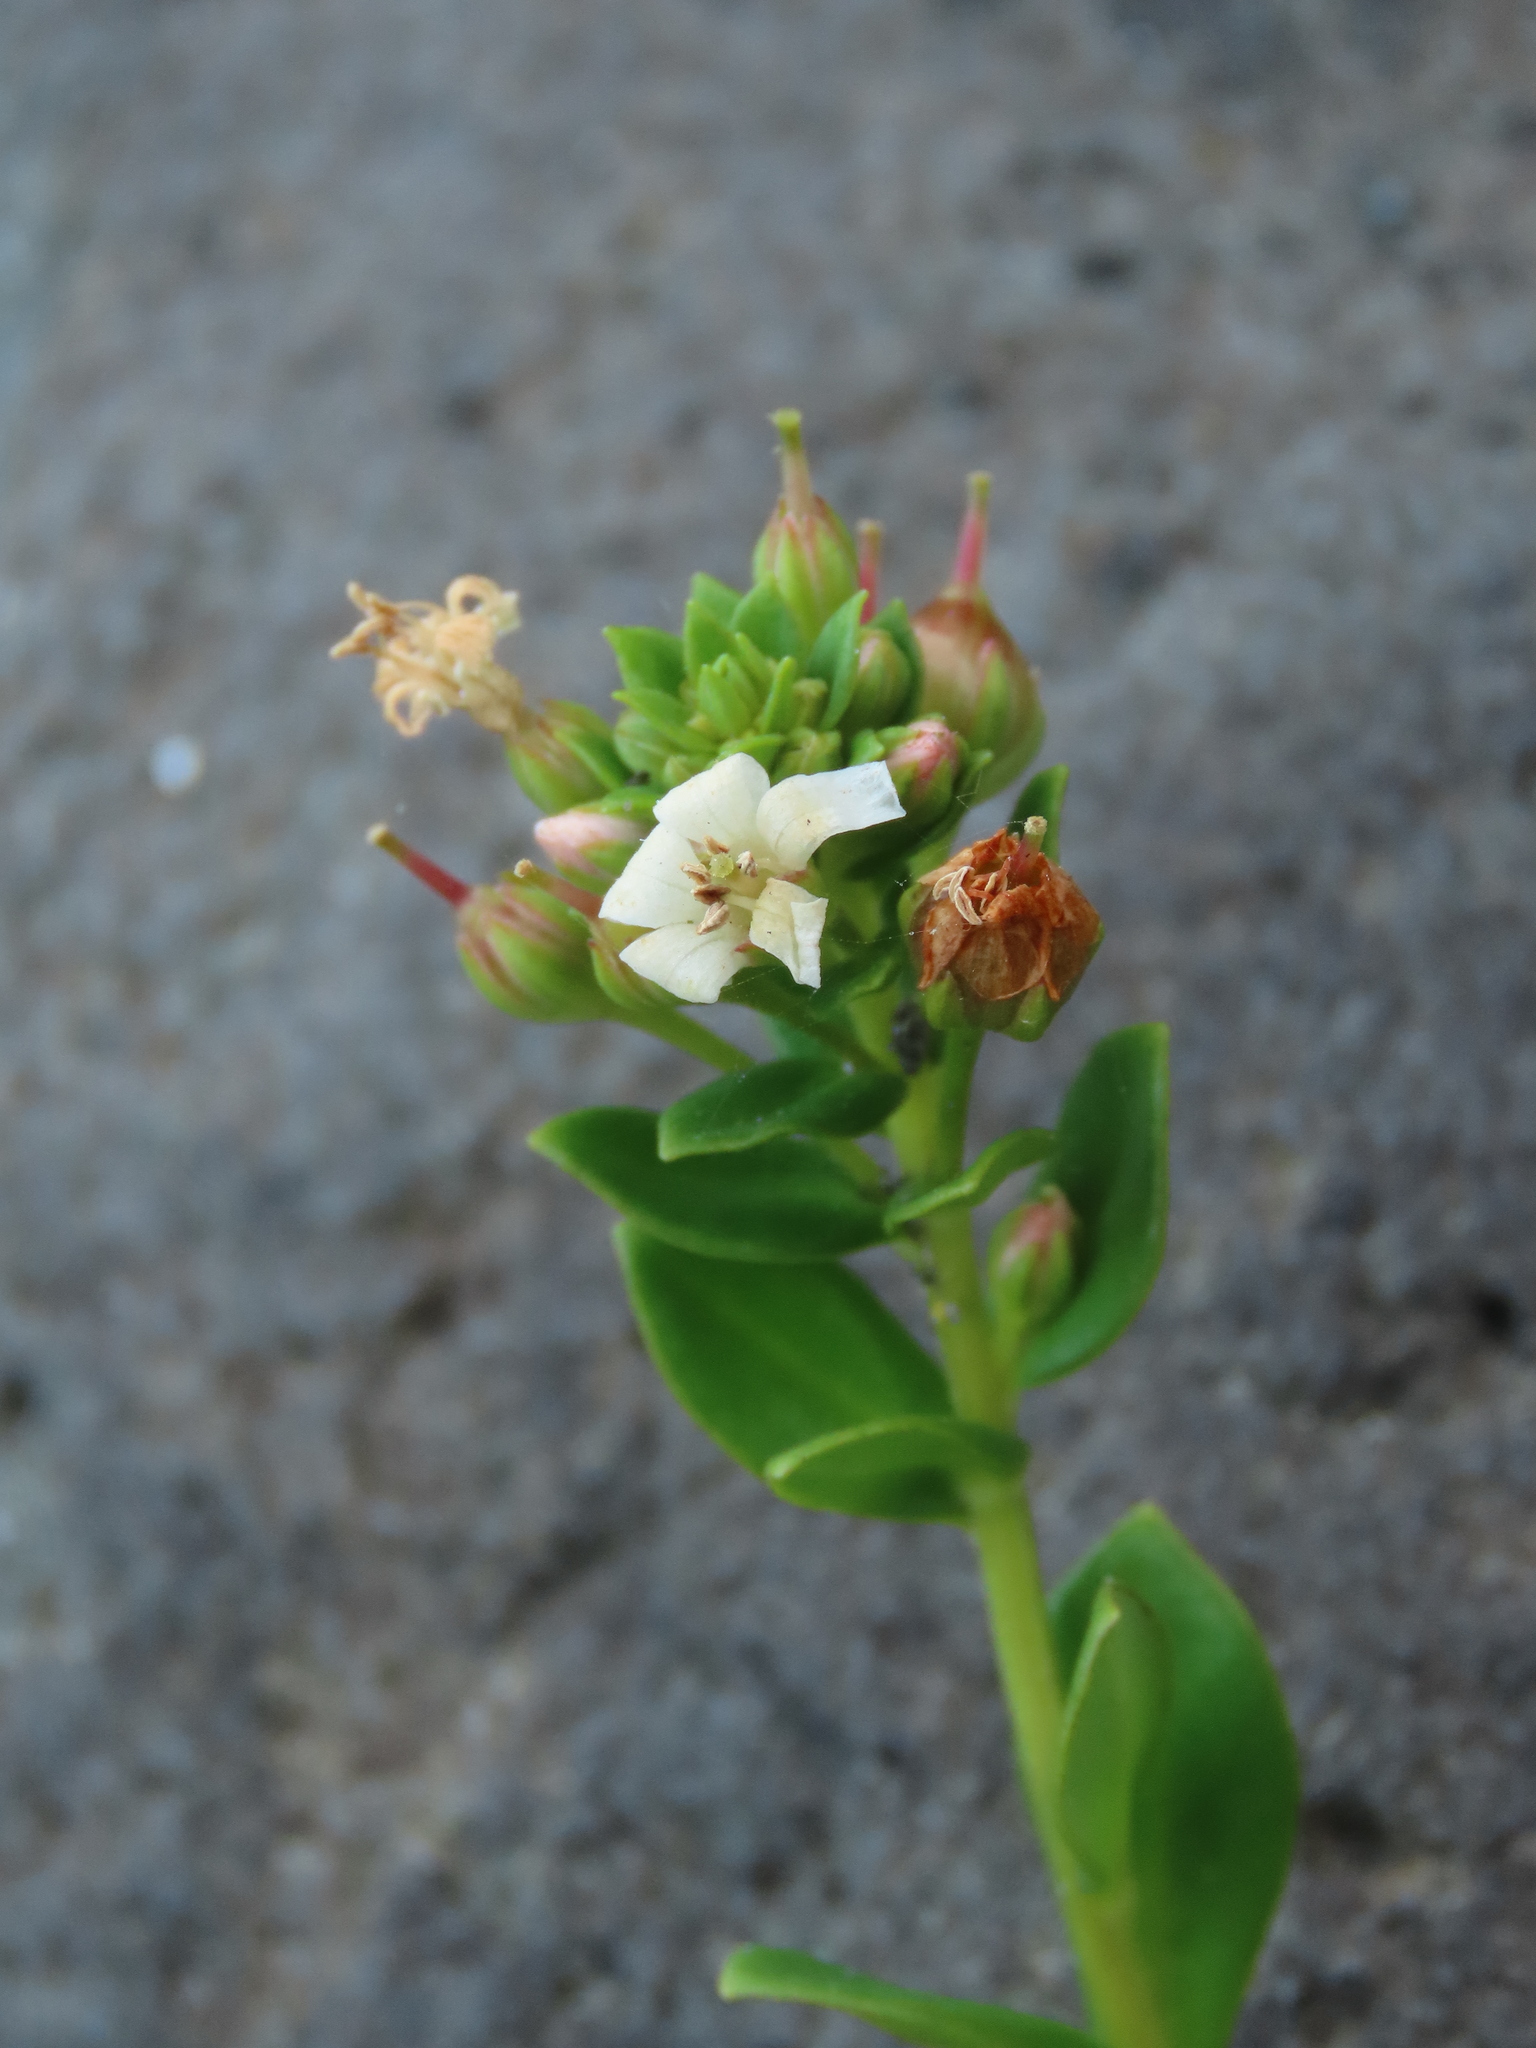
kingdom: Plantae
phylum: Tracheophyta
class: Magnoliopsida
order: Ericales
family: Primulaceae
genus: Lysimachia
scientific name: Lysimachia mauritiana
